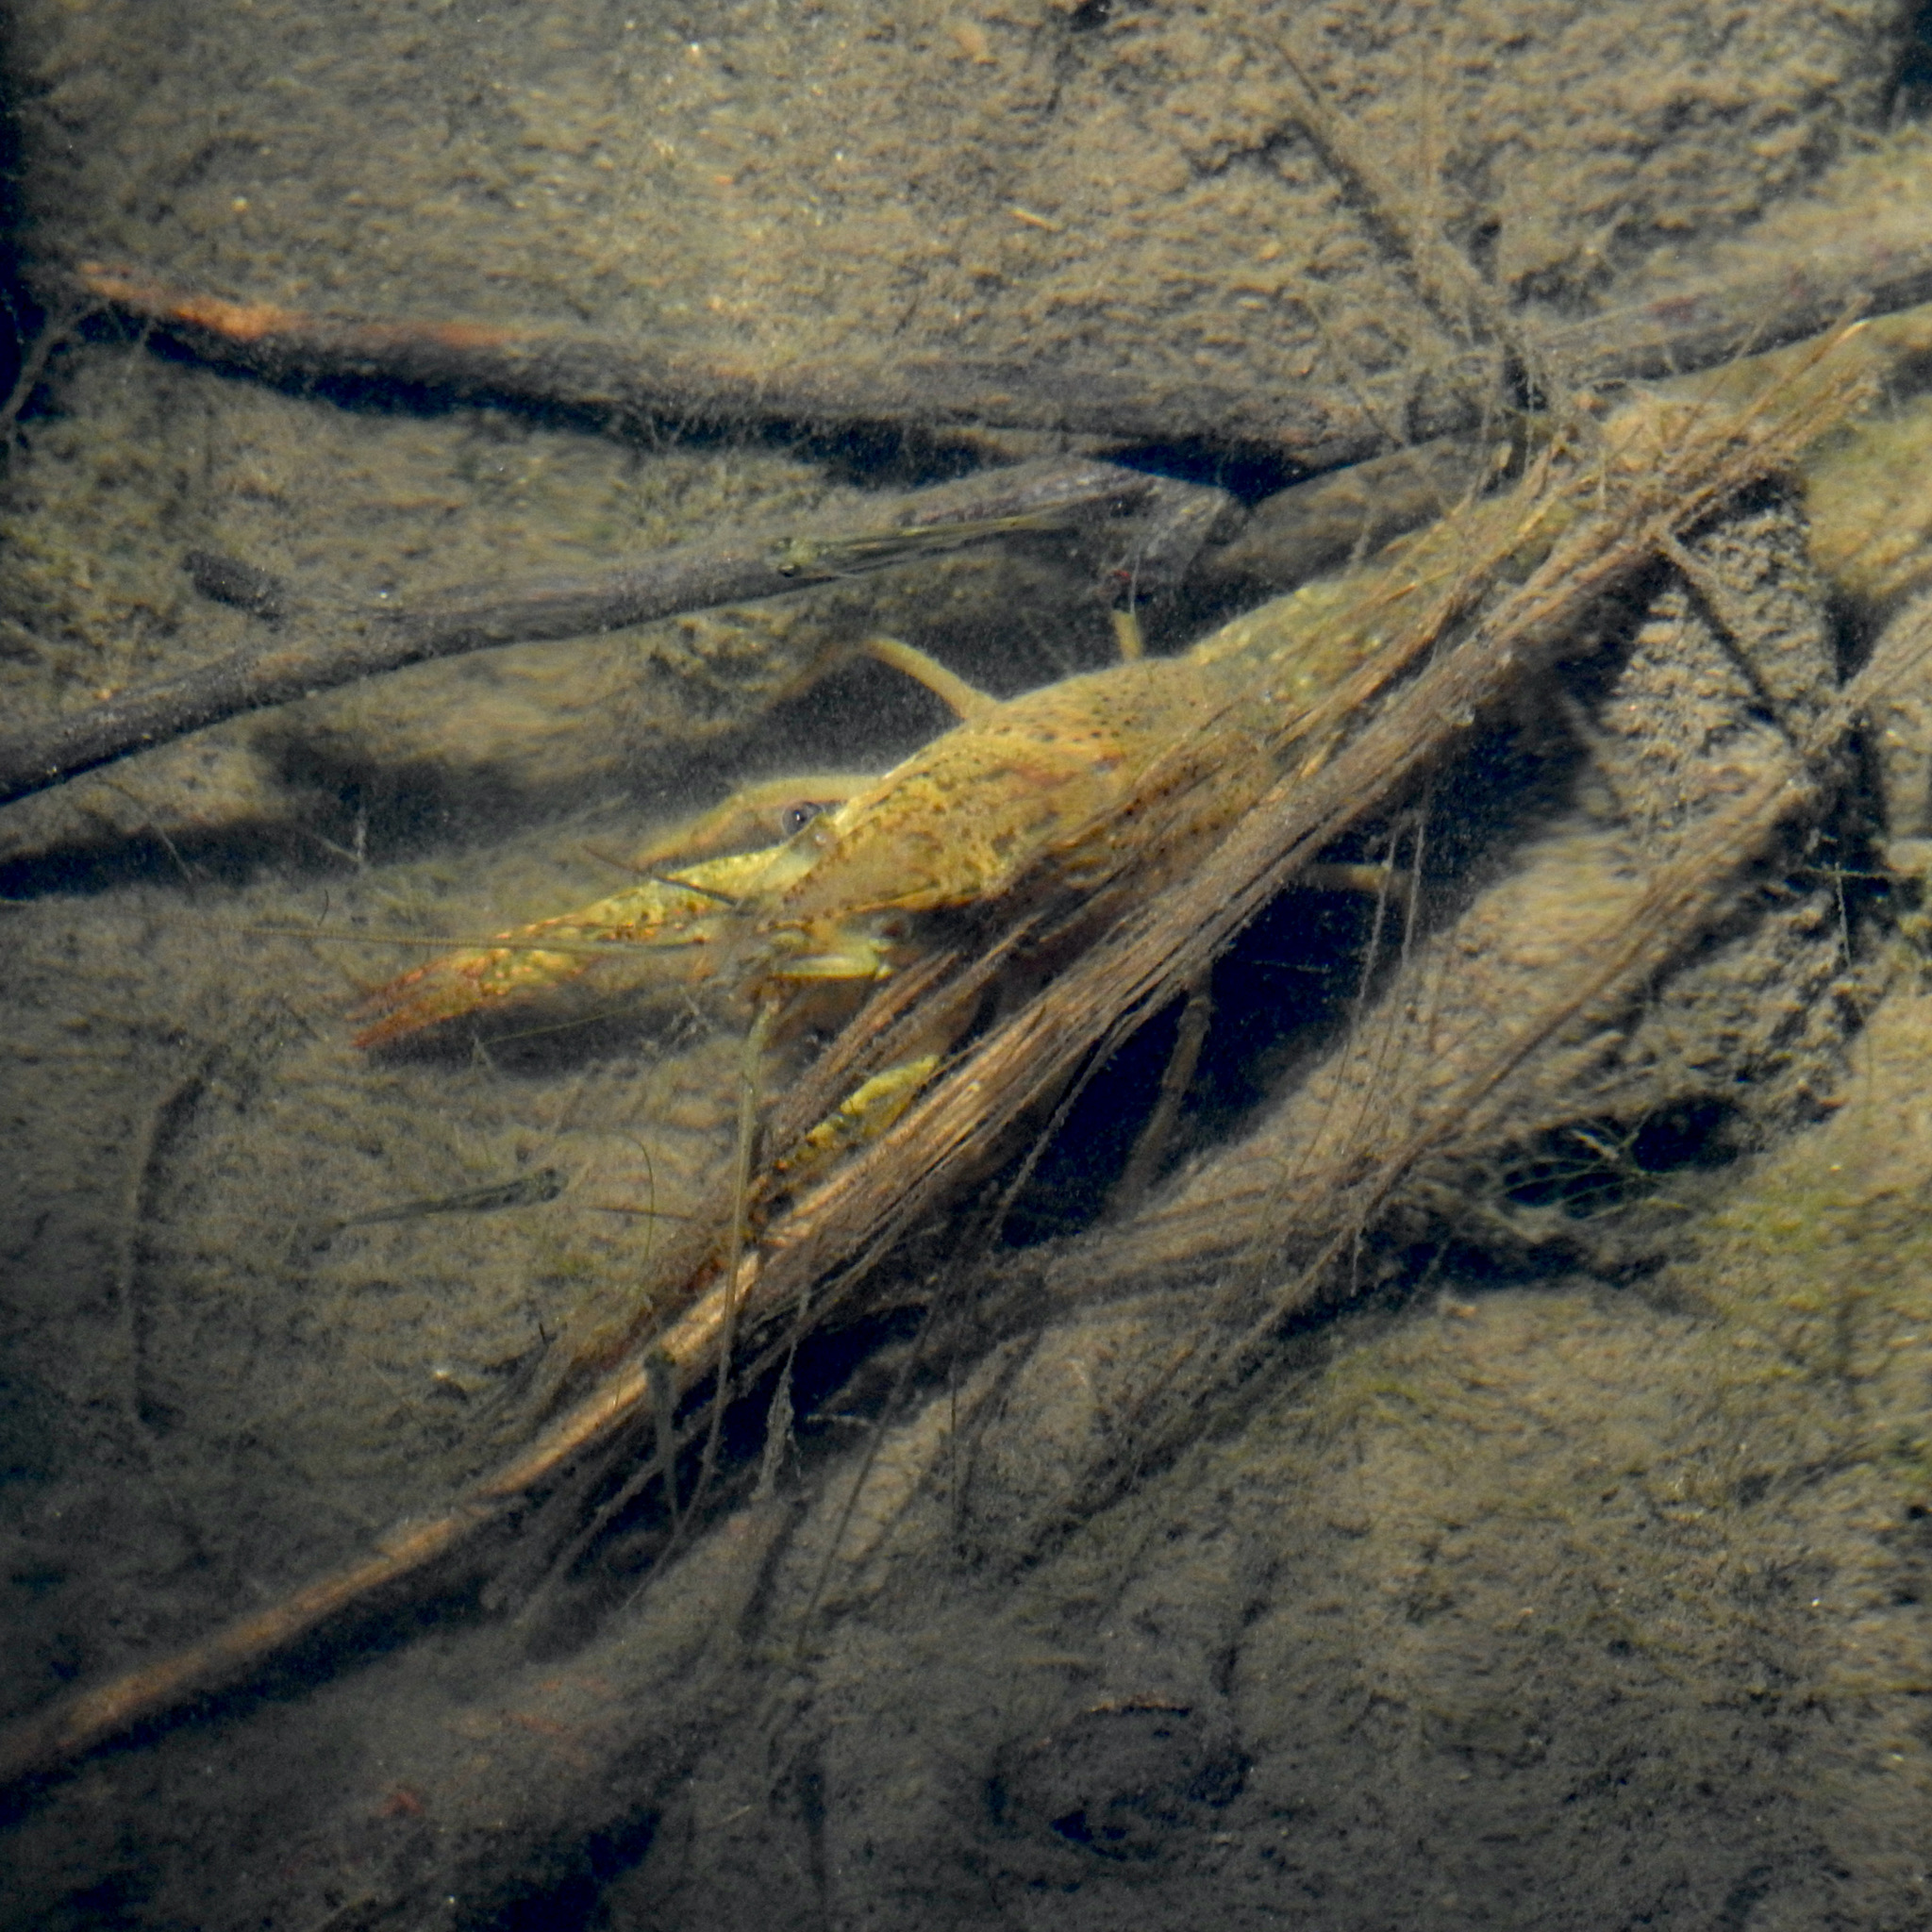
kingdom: Animalia
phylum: Arthropoda
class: Malacostraca
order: Decapoda
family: Cambaridae
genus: Procambarus
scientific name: Procambarus clarkii
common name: Red swamp crayfish
